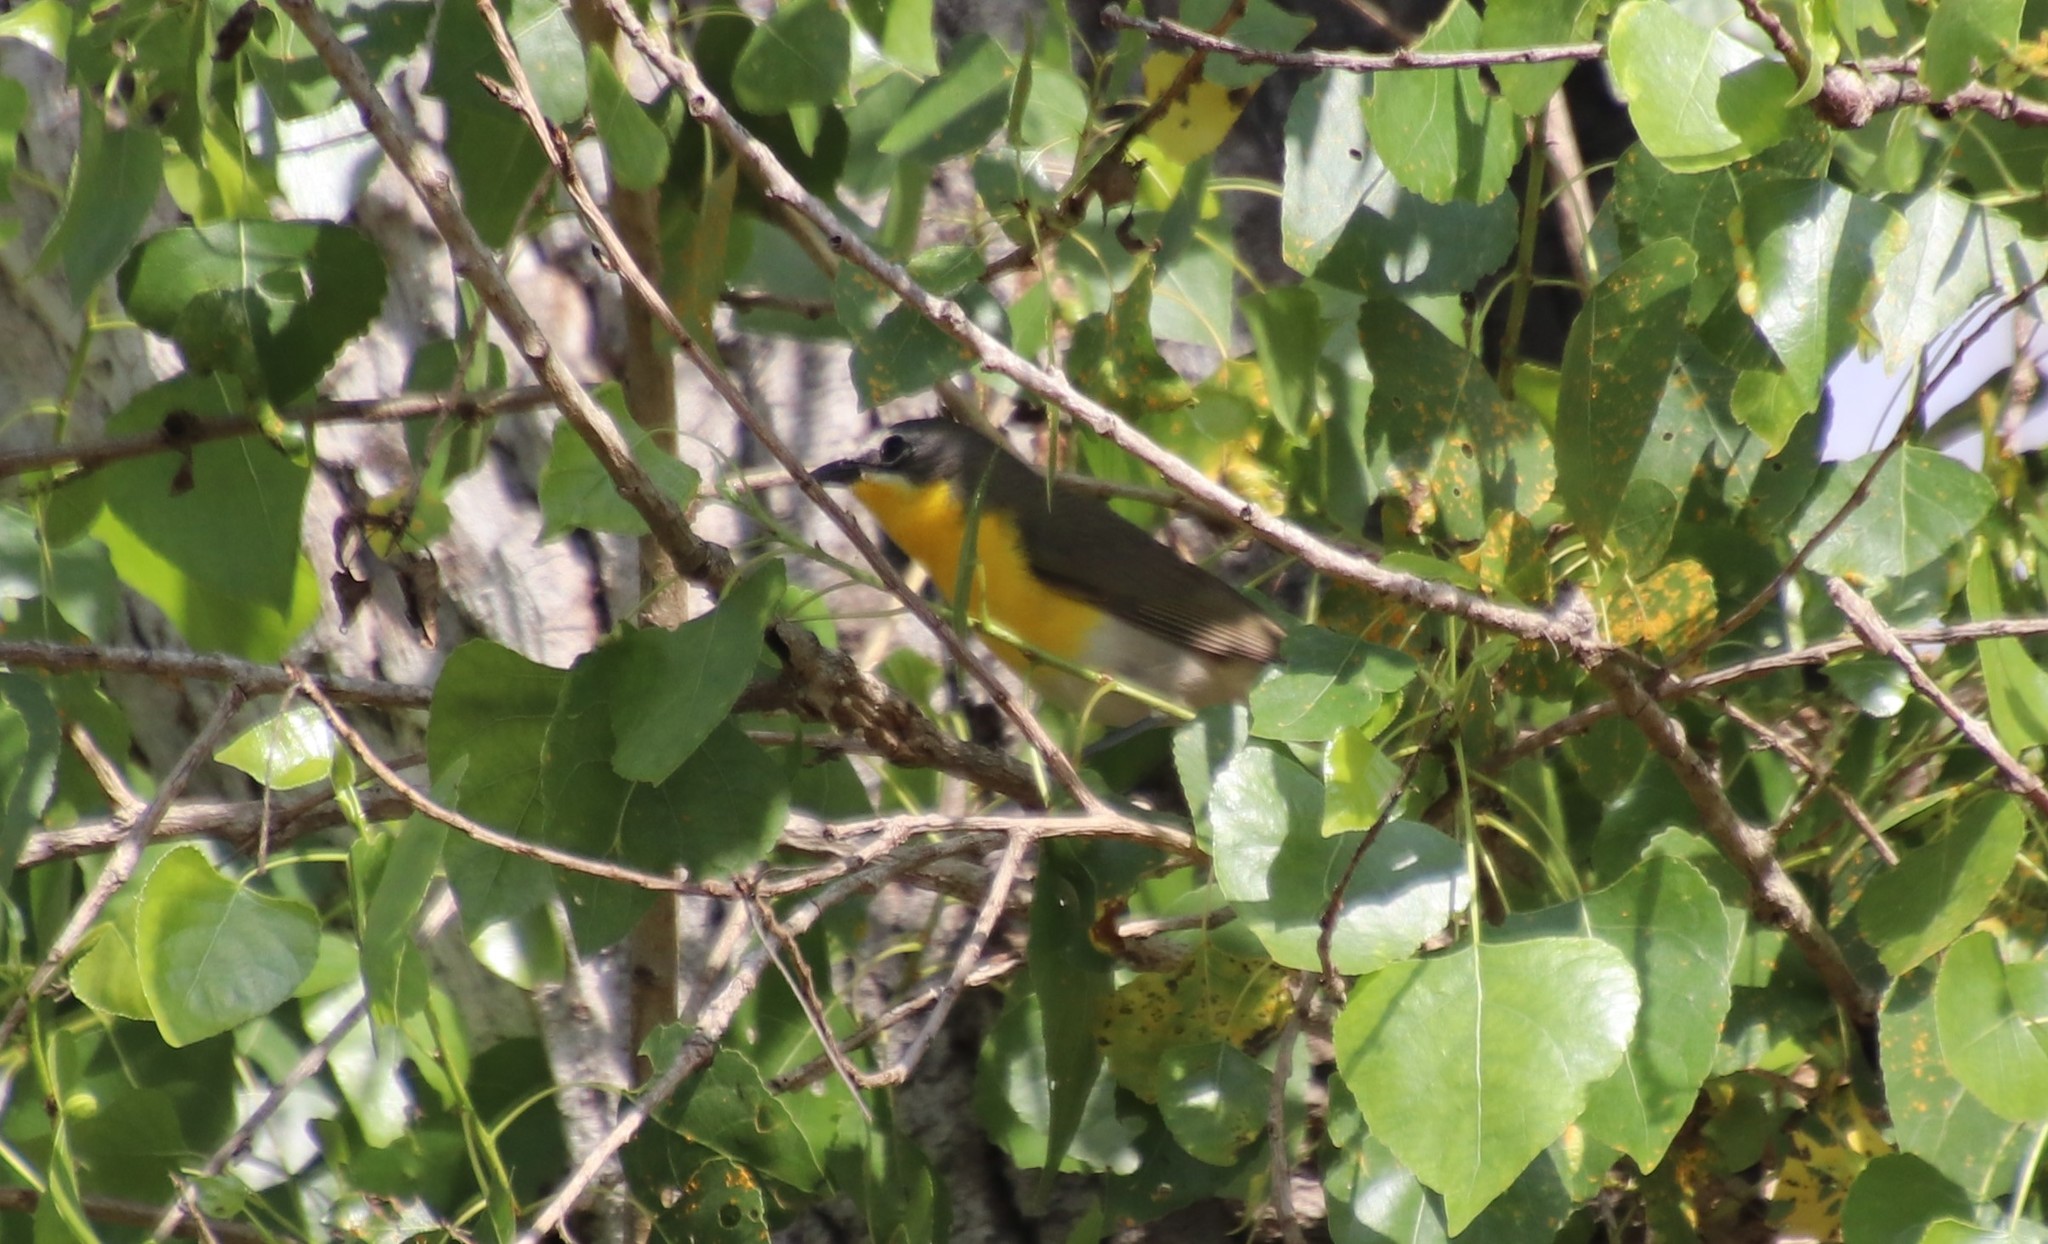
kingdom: Animalia
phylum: Chordata
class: Aves
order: Passeriformes
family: Parulidae
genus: Icteria
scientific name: Icteria virens
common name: Yellow-breasted chat
